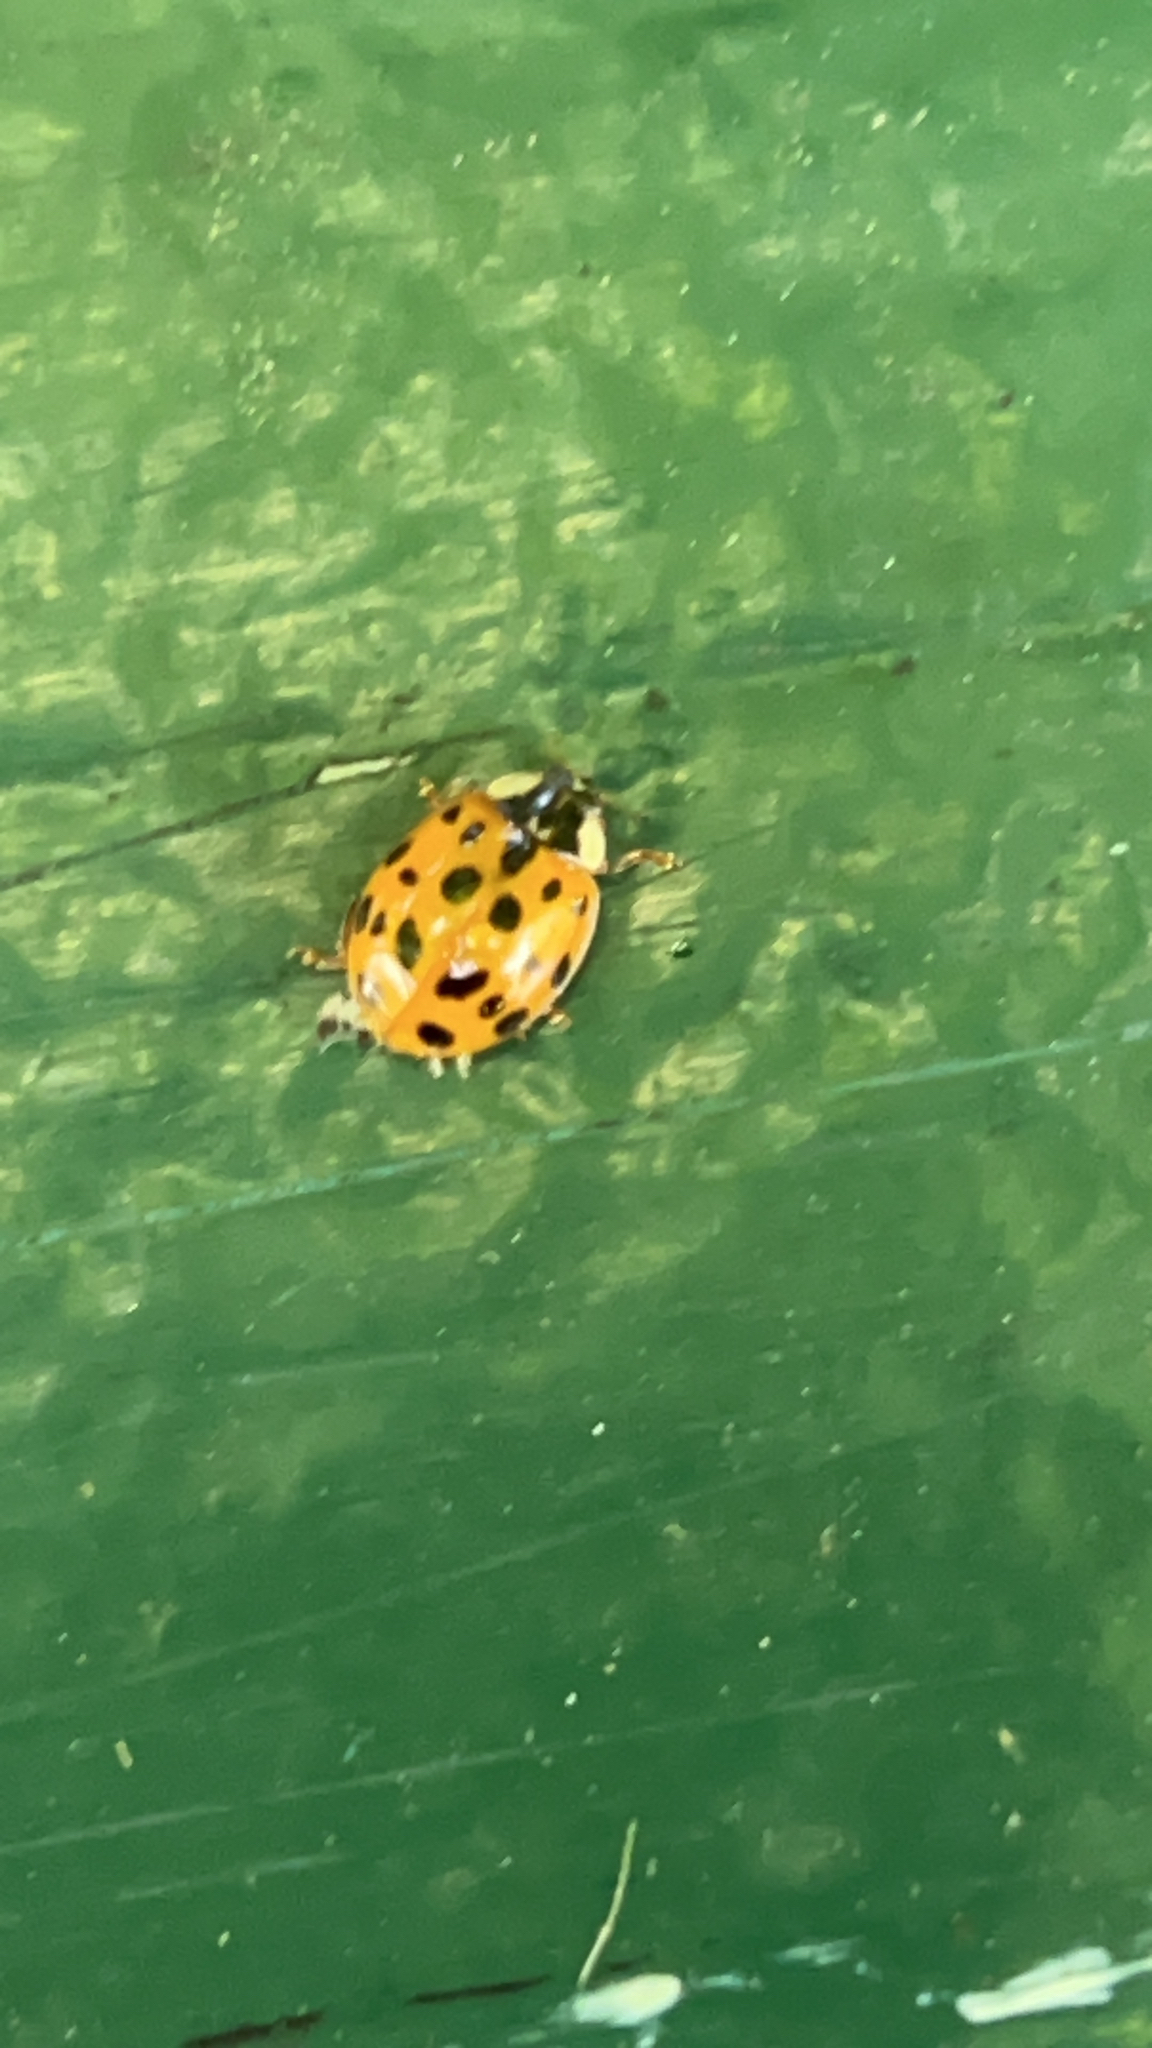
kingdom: Animalia
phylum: Arthropoda
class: Insecta
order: Coleoptera
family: Coccinellidae
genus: Harmonia
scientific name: Harmonia axyridis
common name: Harlequin ladybird
